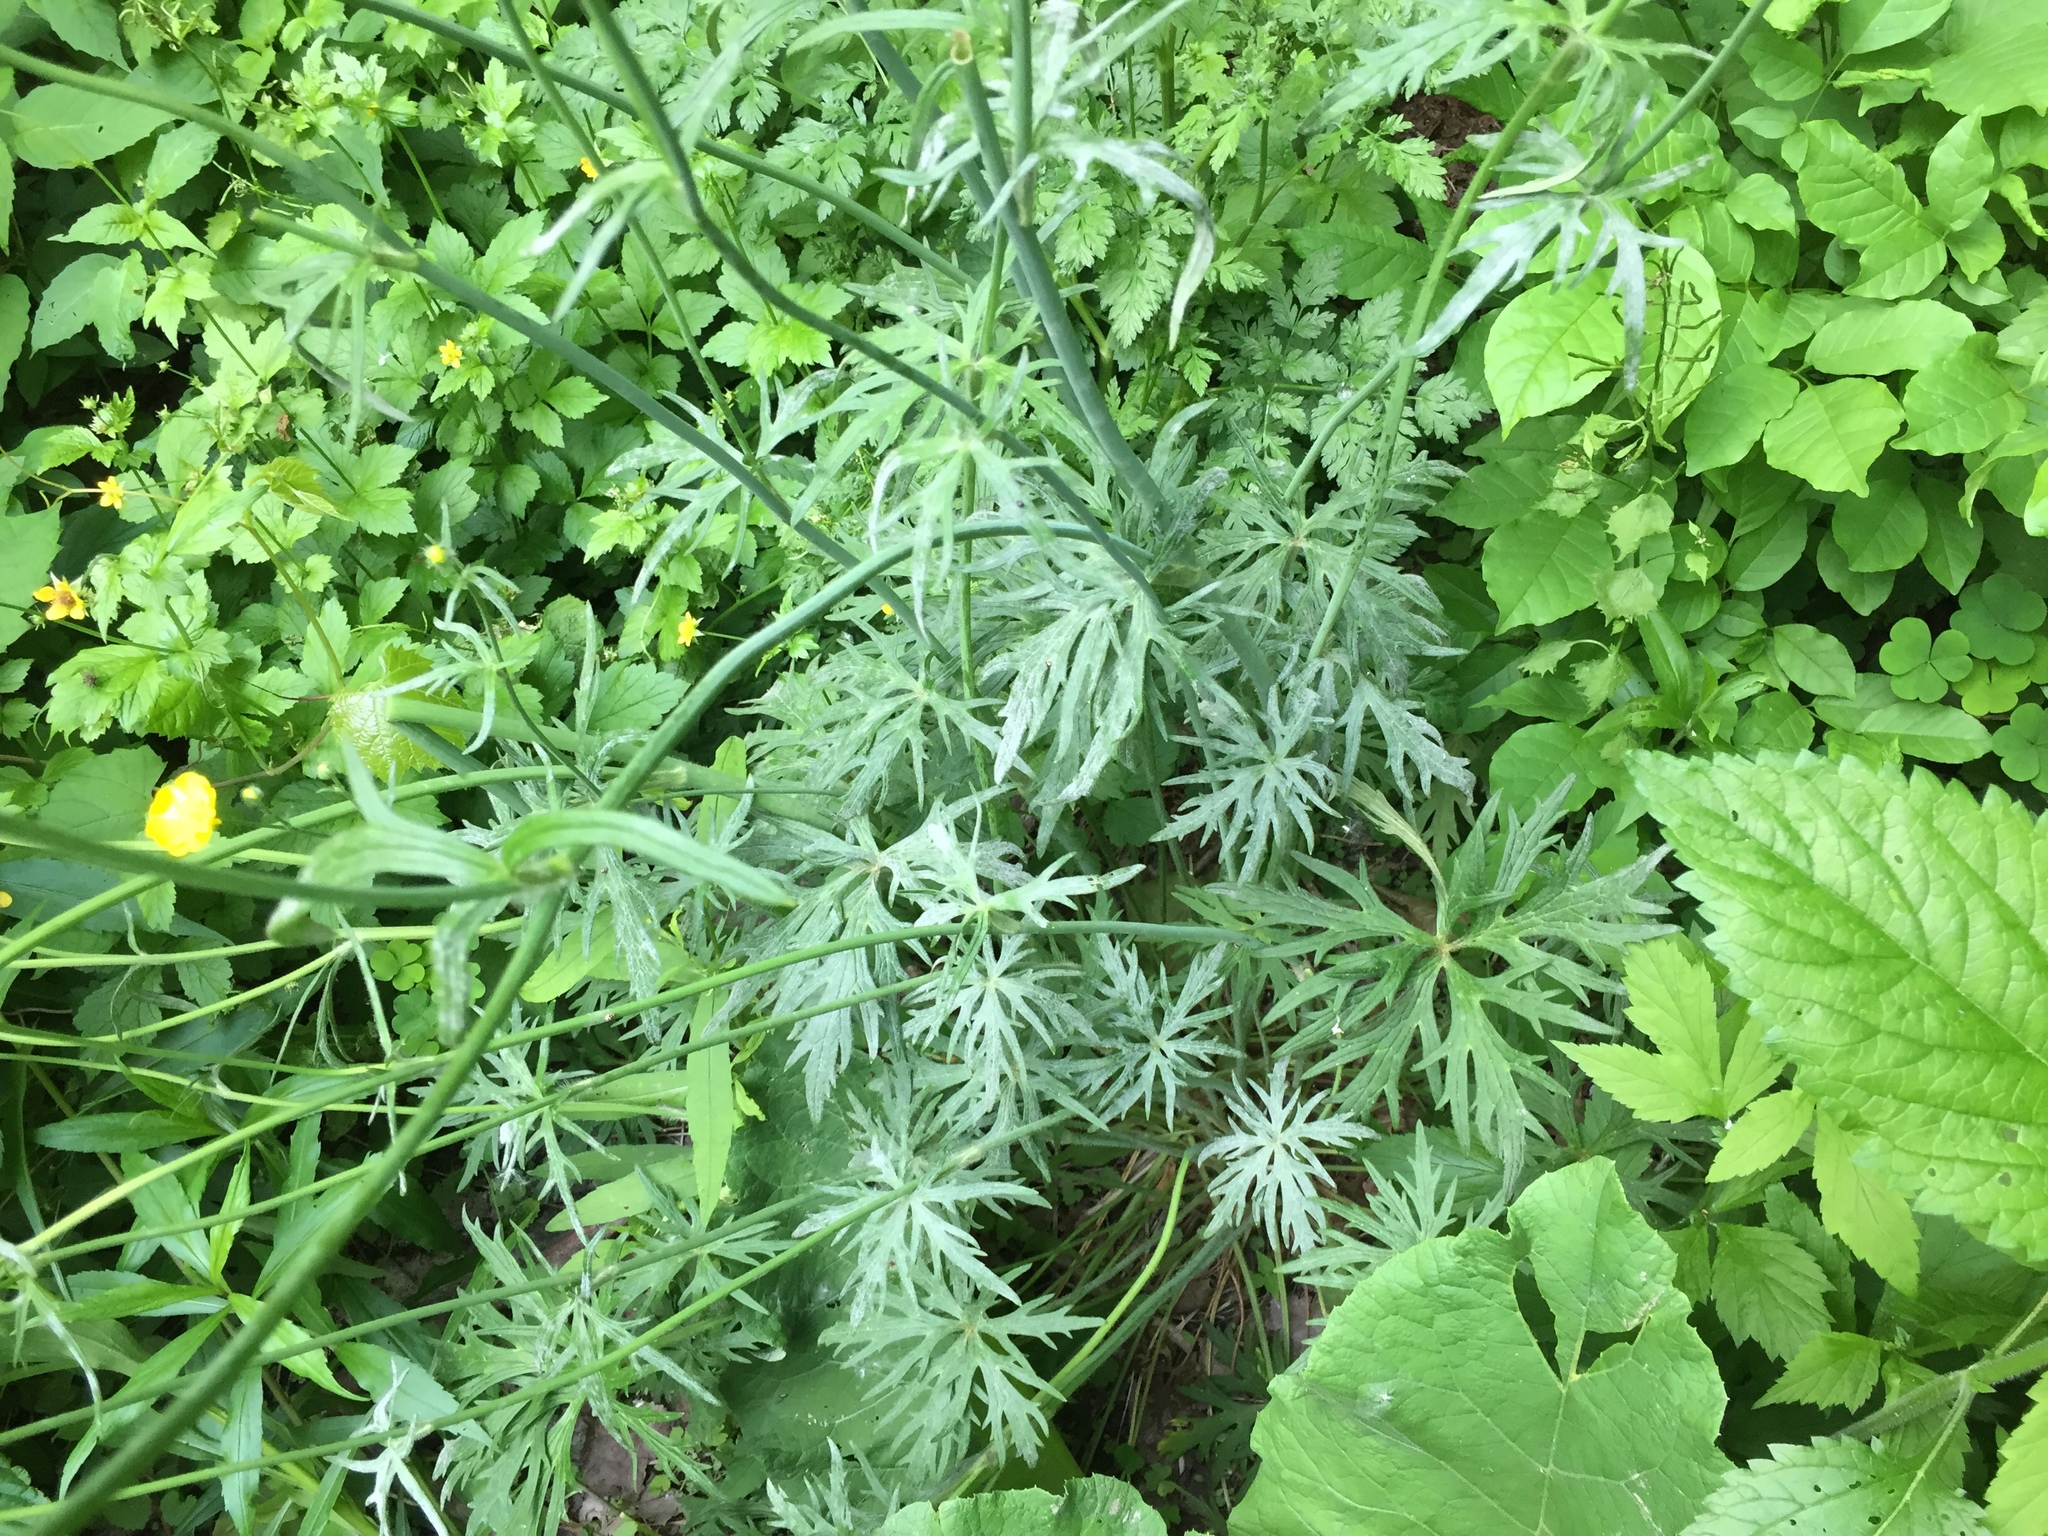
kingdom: Plantae
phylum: Tracheophyta
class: Magnoliopsida
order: Ranunculales
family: Ranunculaceae
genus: Ranunculus
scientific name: Ranunculus acris
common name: Meadow buttercup
